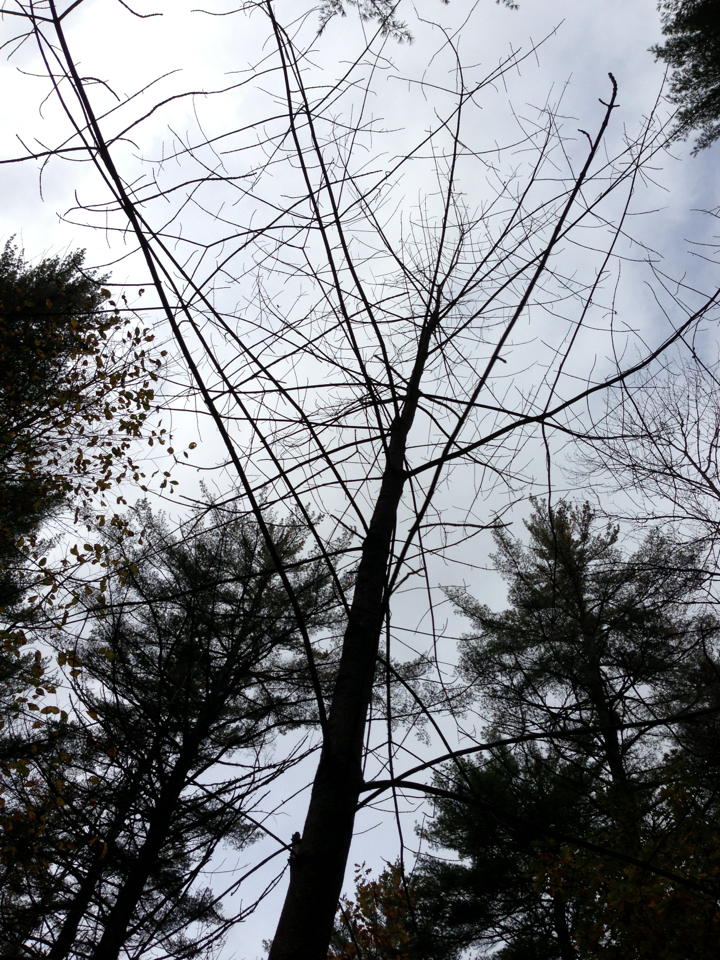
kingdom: Plantae
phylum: Tracheophyta
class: Magnoliopsida
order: Lamiales
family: Oleaceae
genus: Fraxinus
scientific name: Fraxinus americana
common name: White ash
